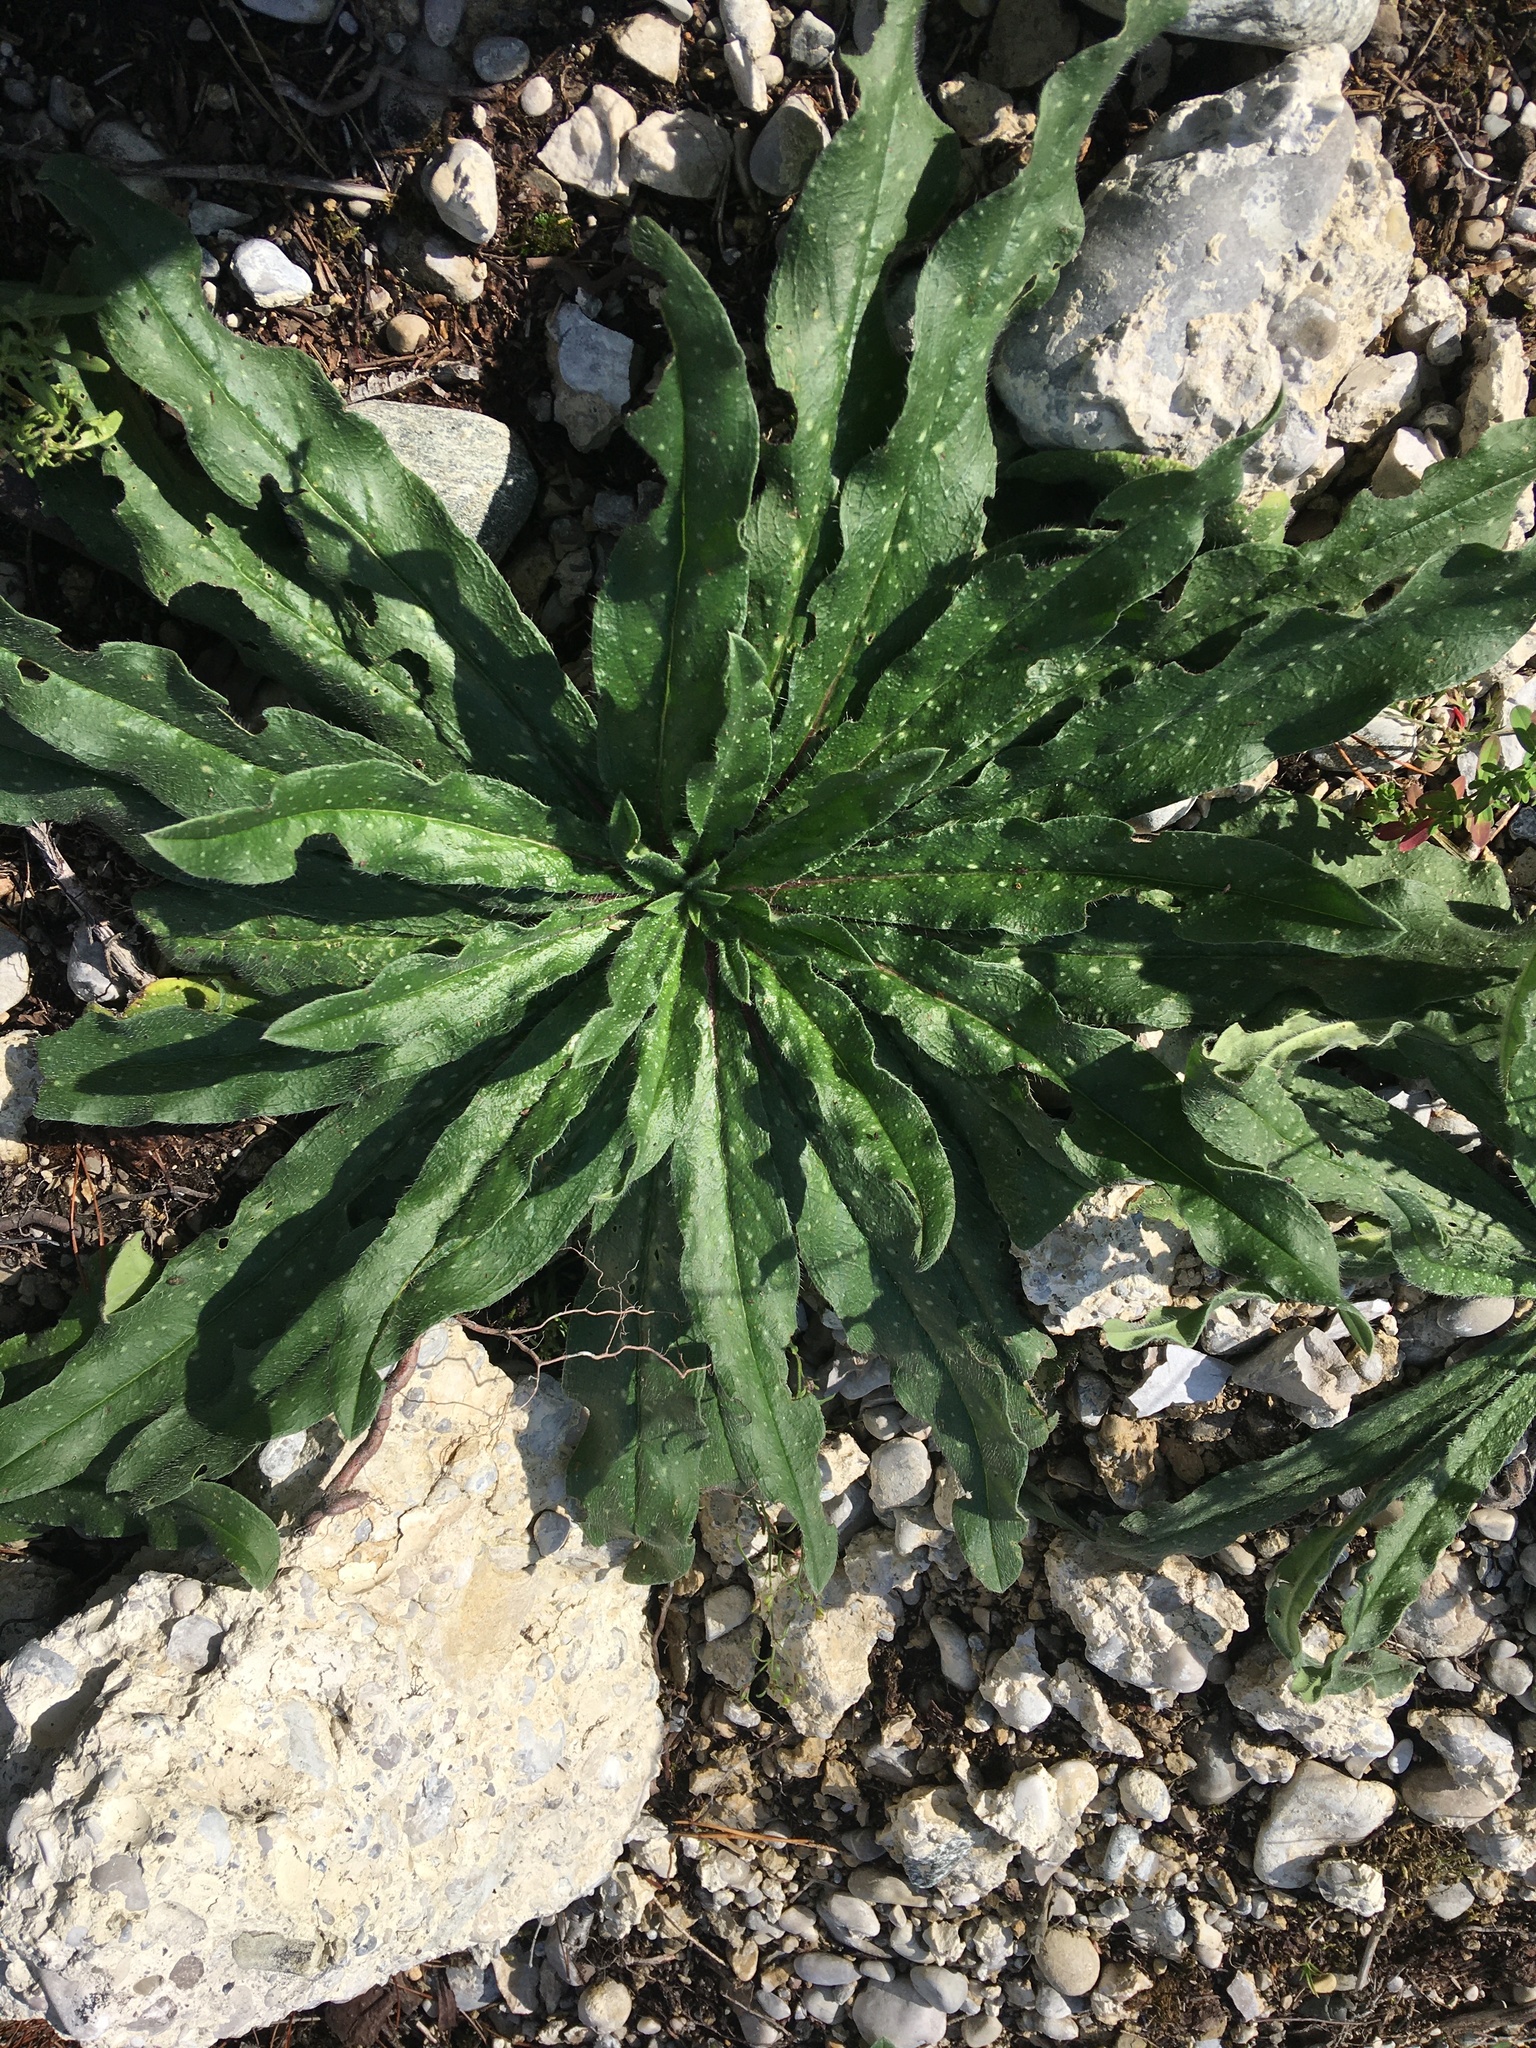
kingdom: Plantae
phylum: Tracheophyta
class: Magnoliopsida
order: Brassicales
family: Resedaceae
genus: Reseda
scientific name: Reseda luteola
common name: Weld
